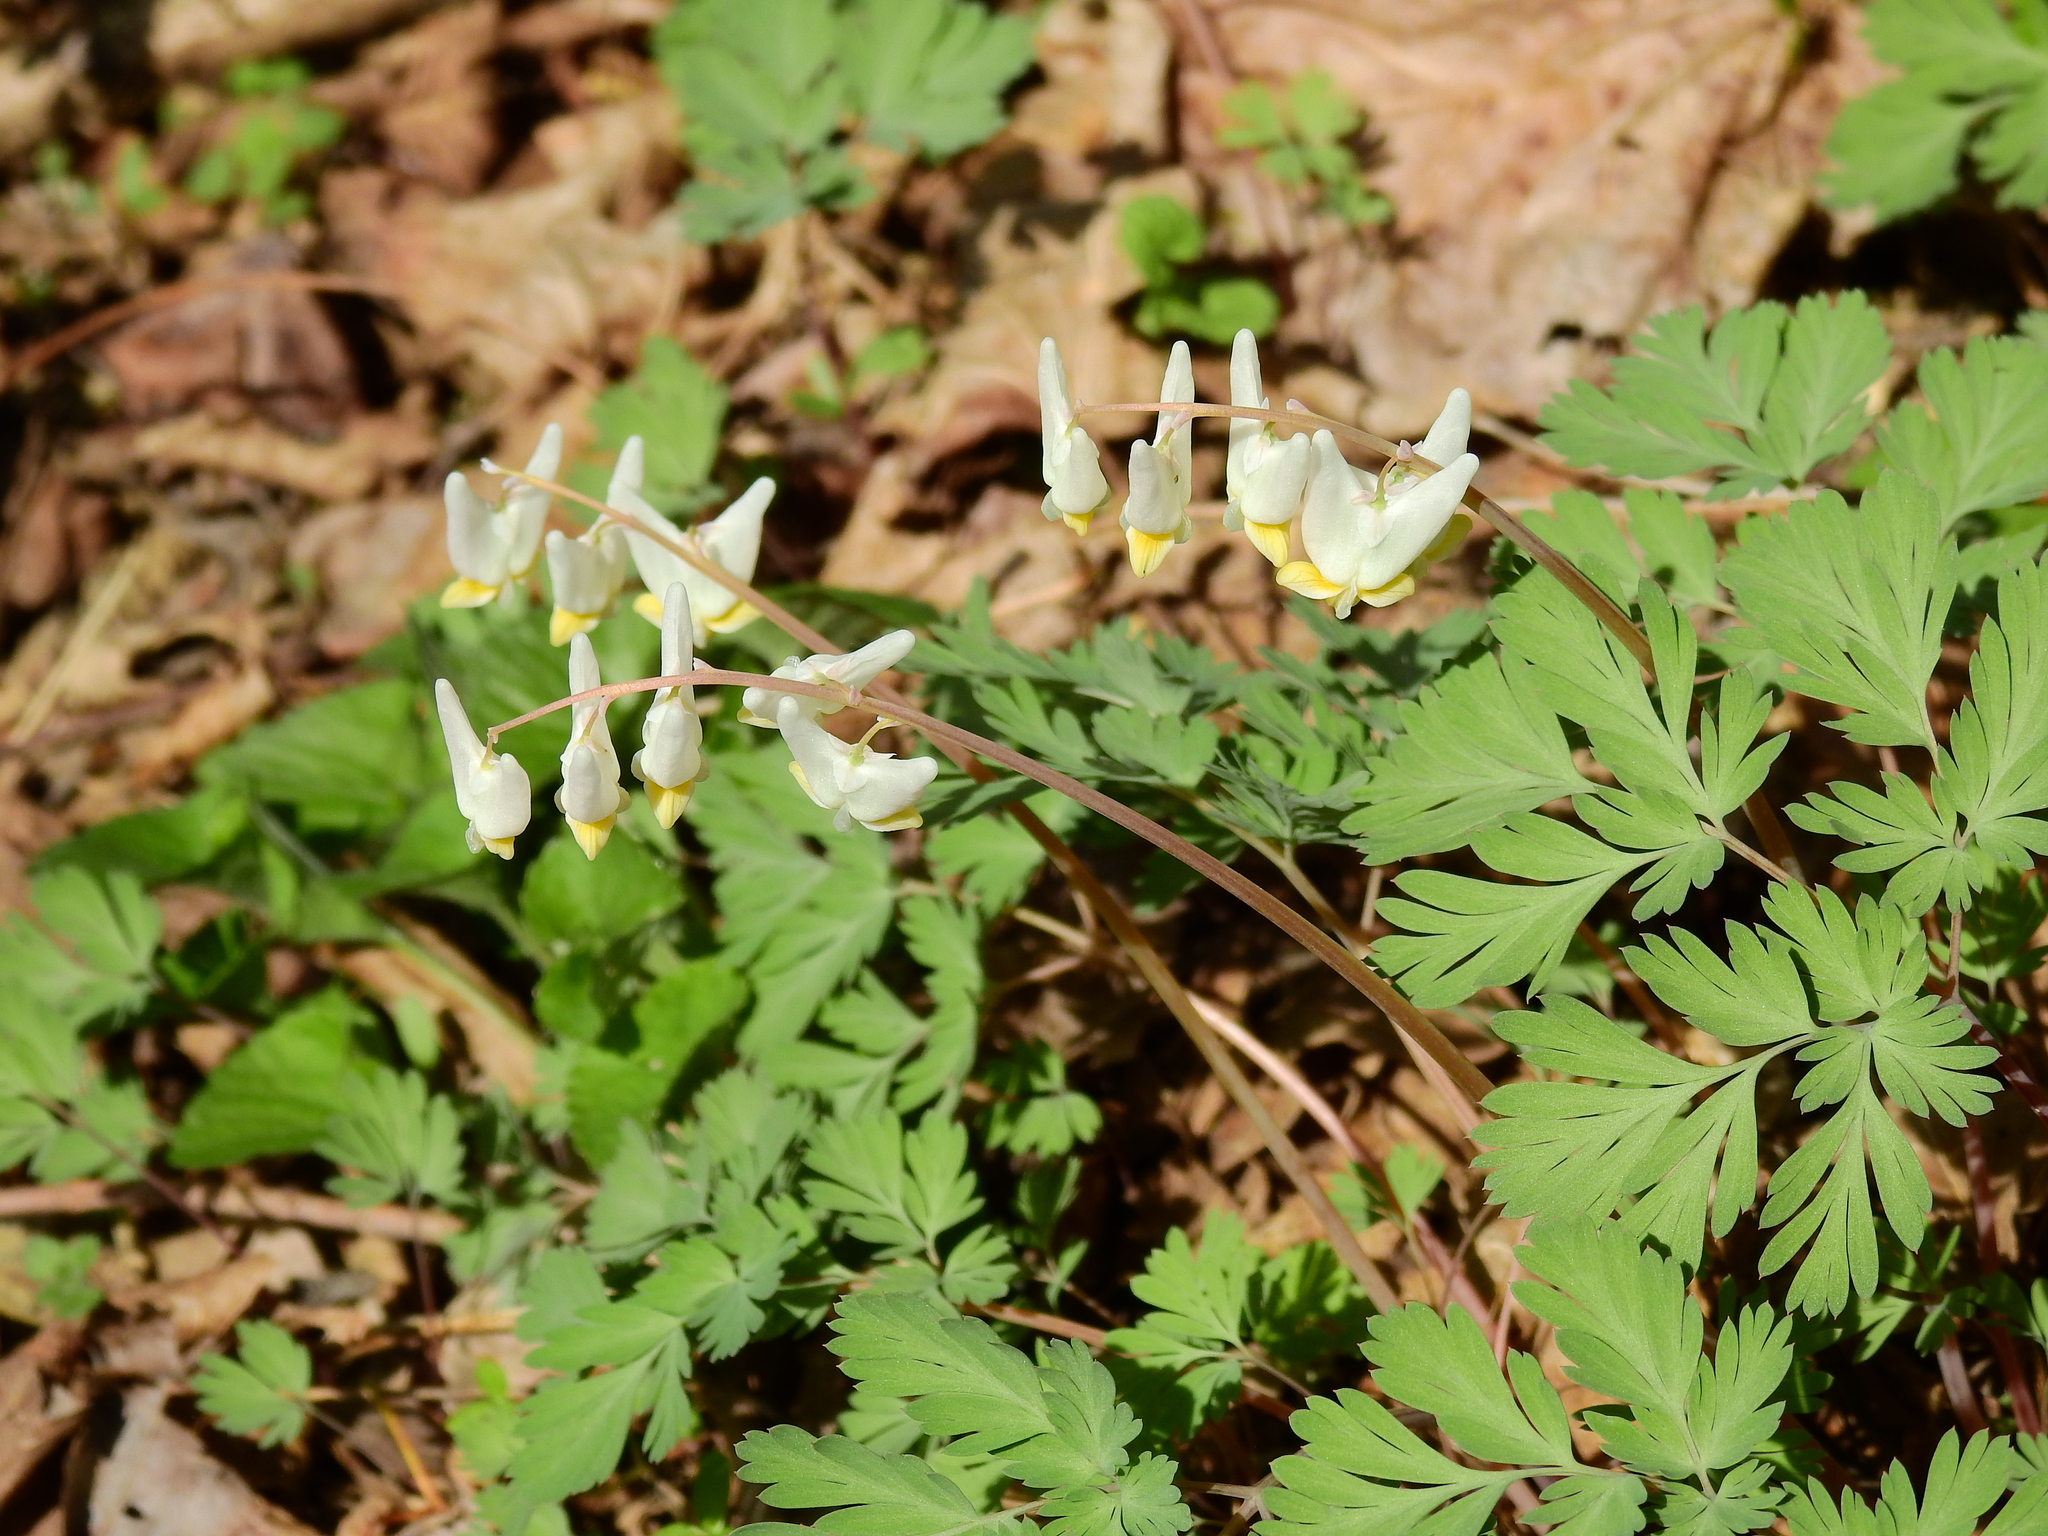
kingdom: Plantae
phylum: Tracheophyta
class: Magnoliopsida
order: Ranunculales
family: Papaveraceae
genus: Dicentra
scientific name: Dicentra cucullaria
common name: Dutchman's breeches
